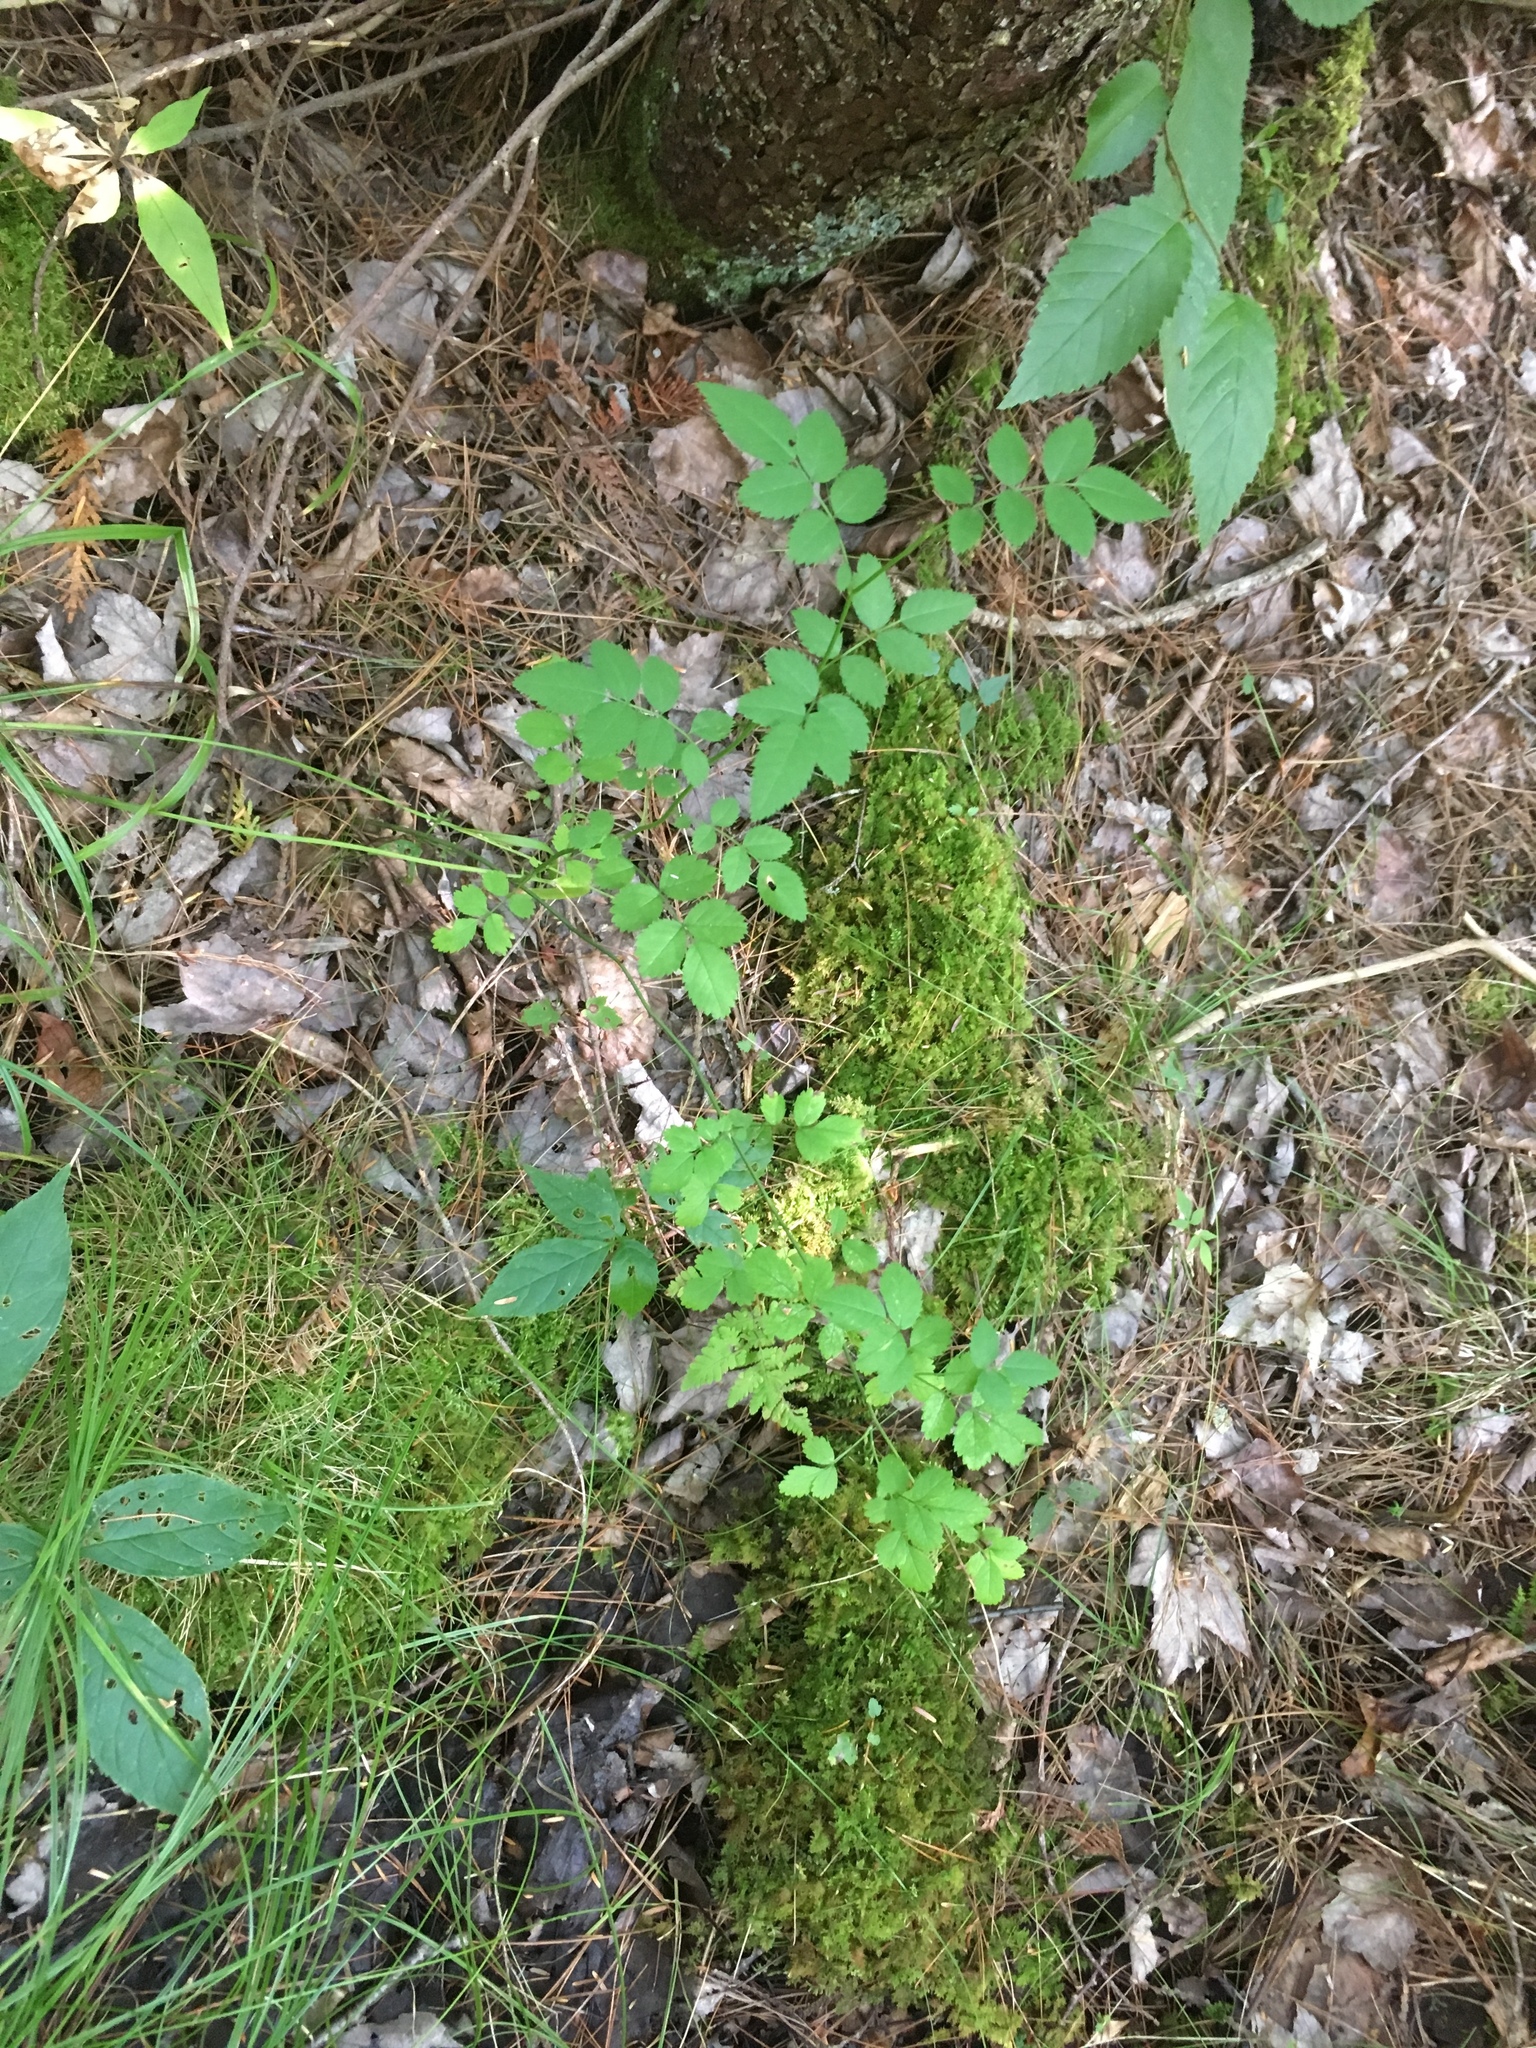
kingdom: Plantae
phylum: Tracheophyta
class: Magnoliopsida
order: Rosales
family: Rosaceae
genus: Rosa
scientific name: Rosa multiflora
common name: Multiflora rose
